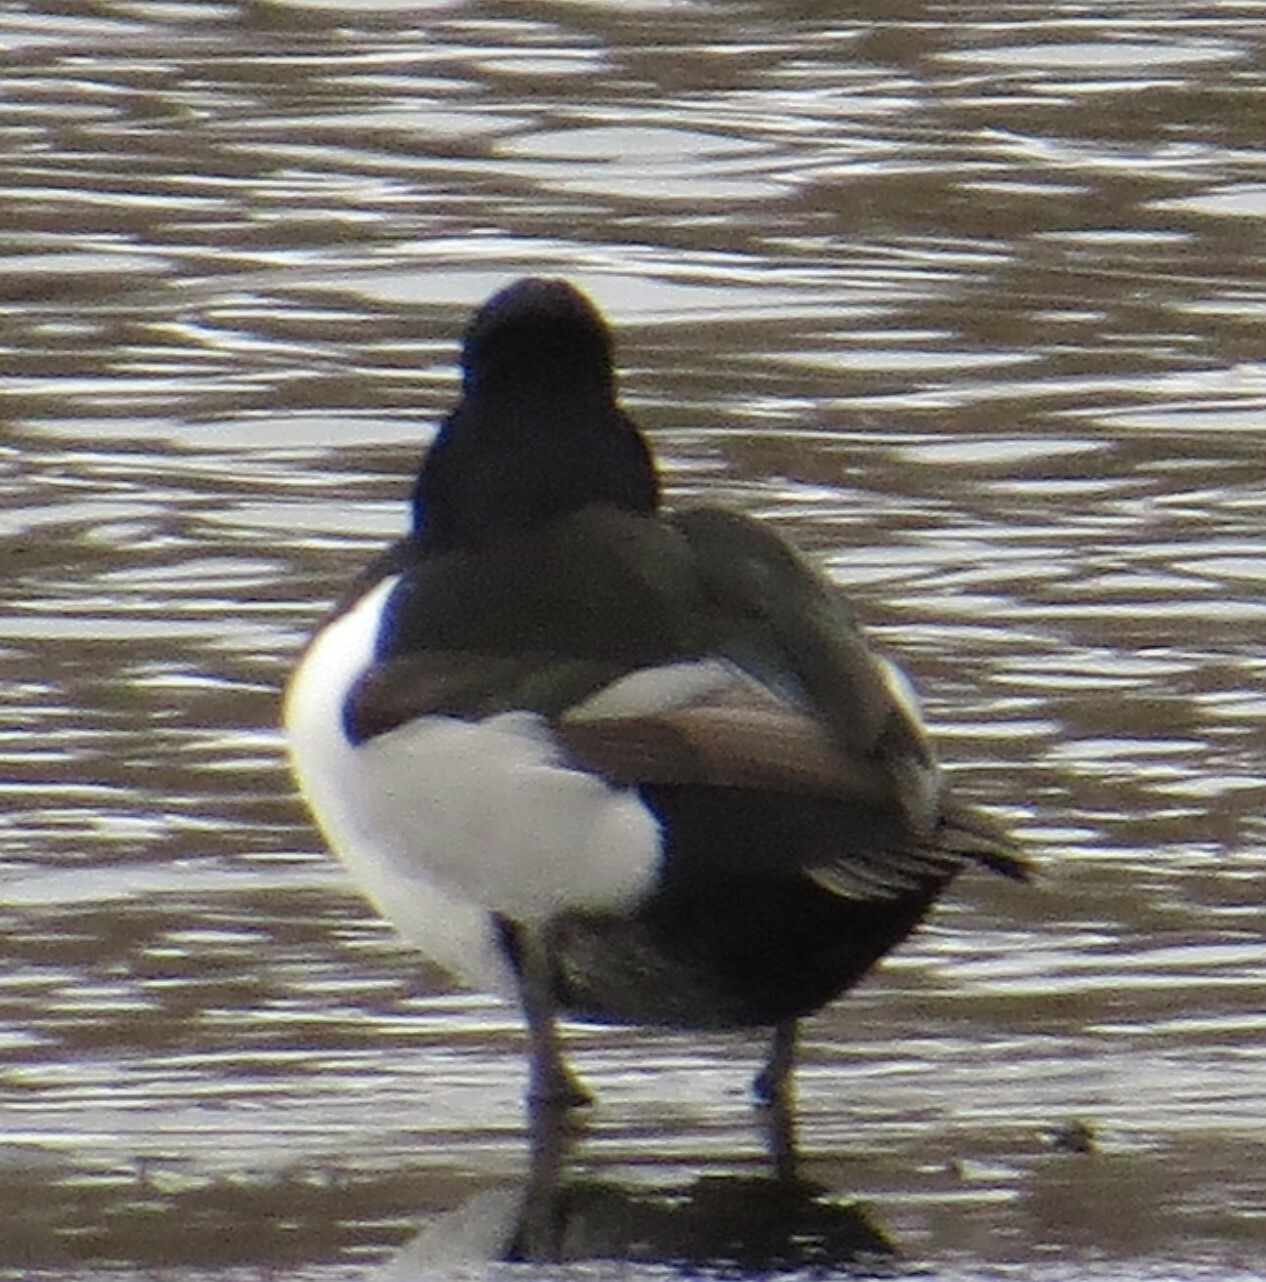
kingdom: Animalia
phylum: Chordata
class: Aves
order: Anseriformes
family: Anatidae
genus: Aythya
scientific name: Aythya collaris
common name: Ring-necked duck
